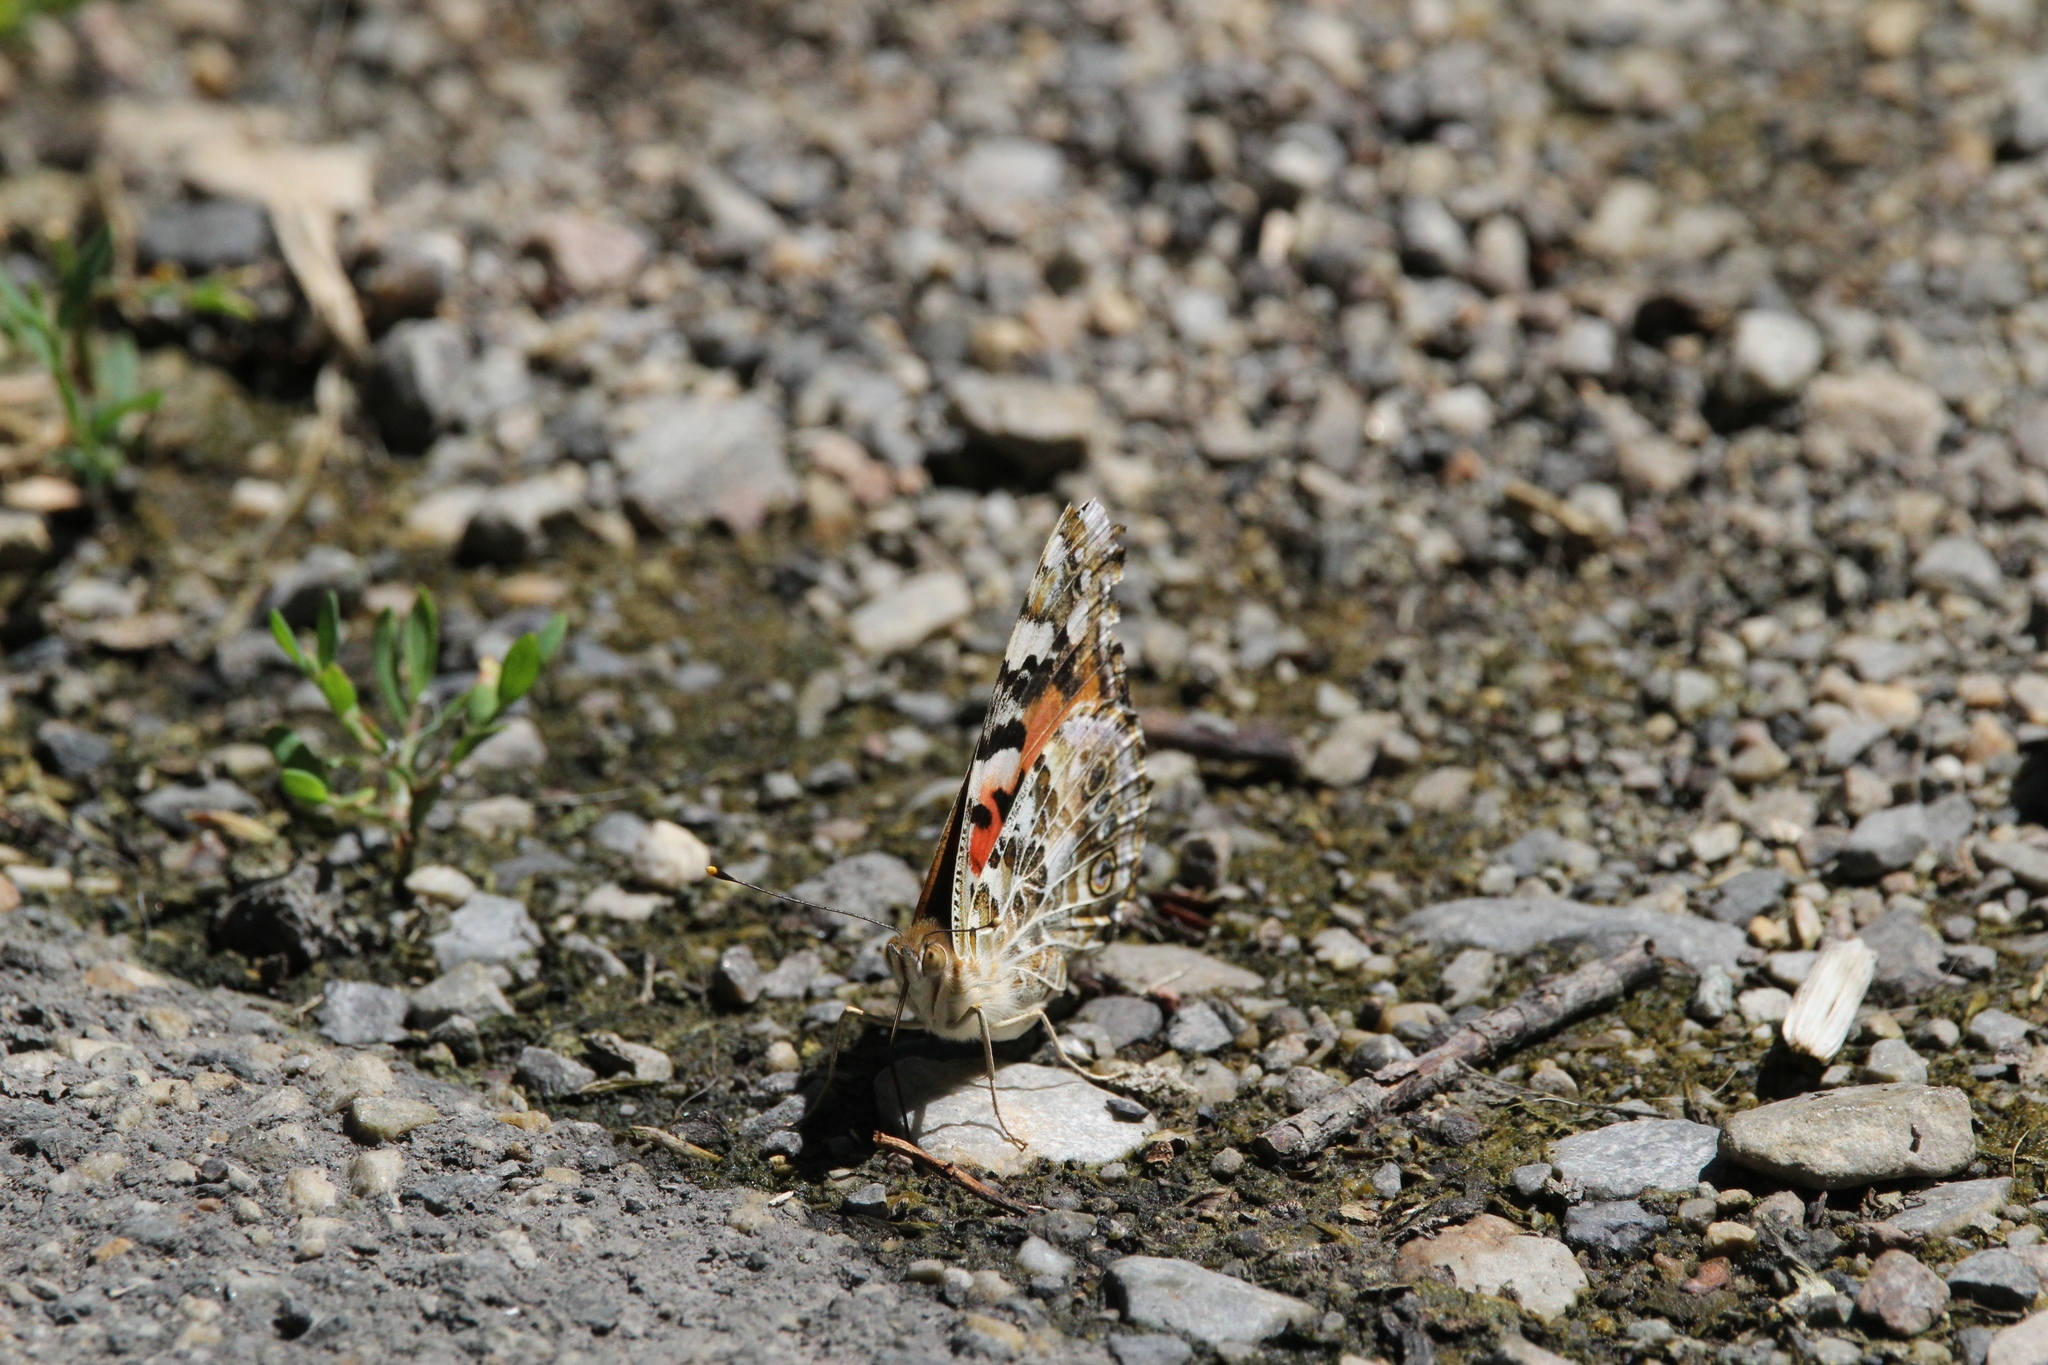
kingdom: Animalia
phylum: Arthropoda
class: Insecta
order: Lepidoptera
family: Nymphalidae
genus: Vanessa
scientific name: Vanessa cardui
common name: Painted lady
